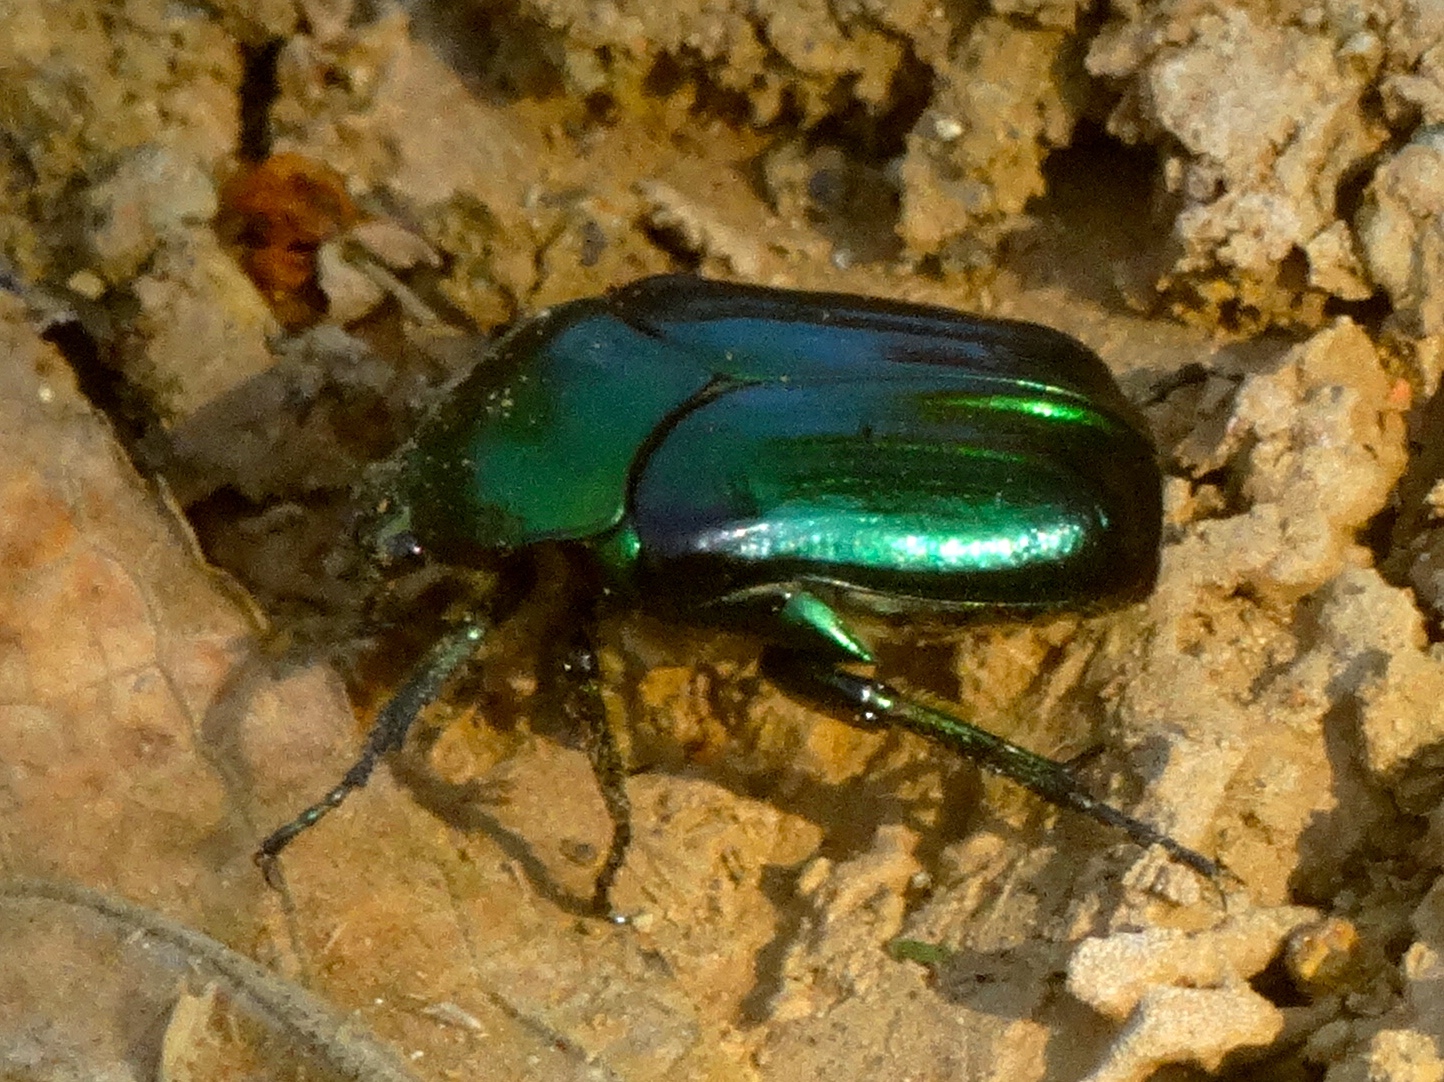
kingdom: Animalia
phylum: Arthropoda
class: Insecta
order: Coleoptera
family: Scarabaeidae
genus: Gymnetina
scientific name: Gymnetina
